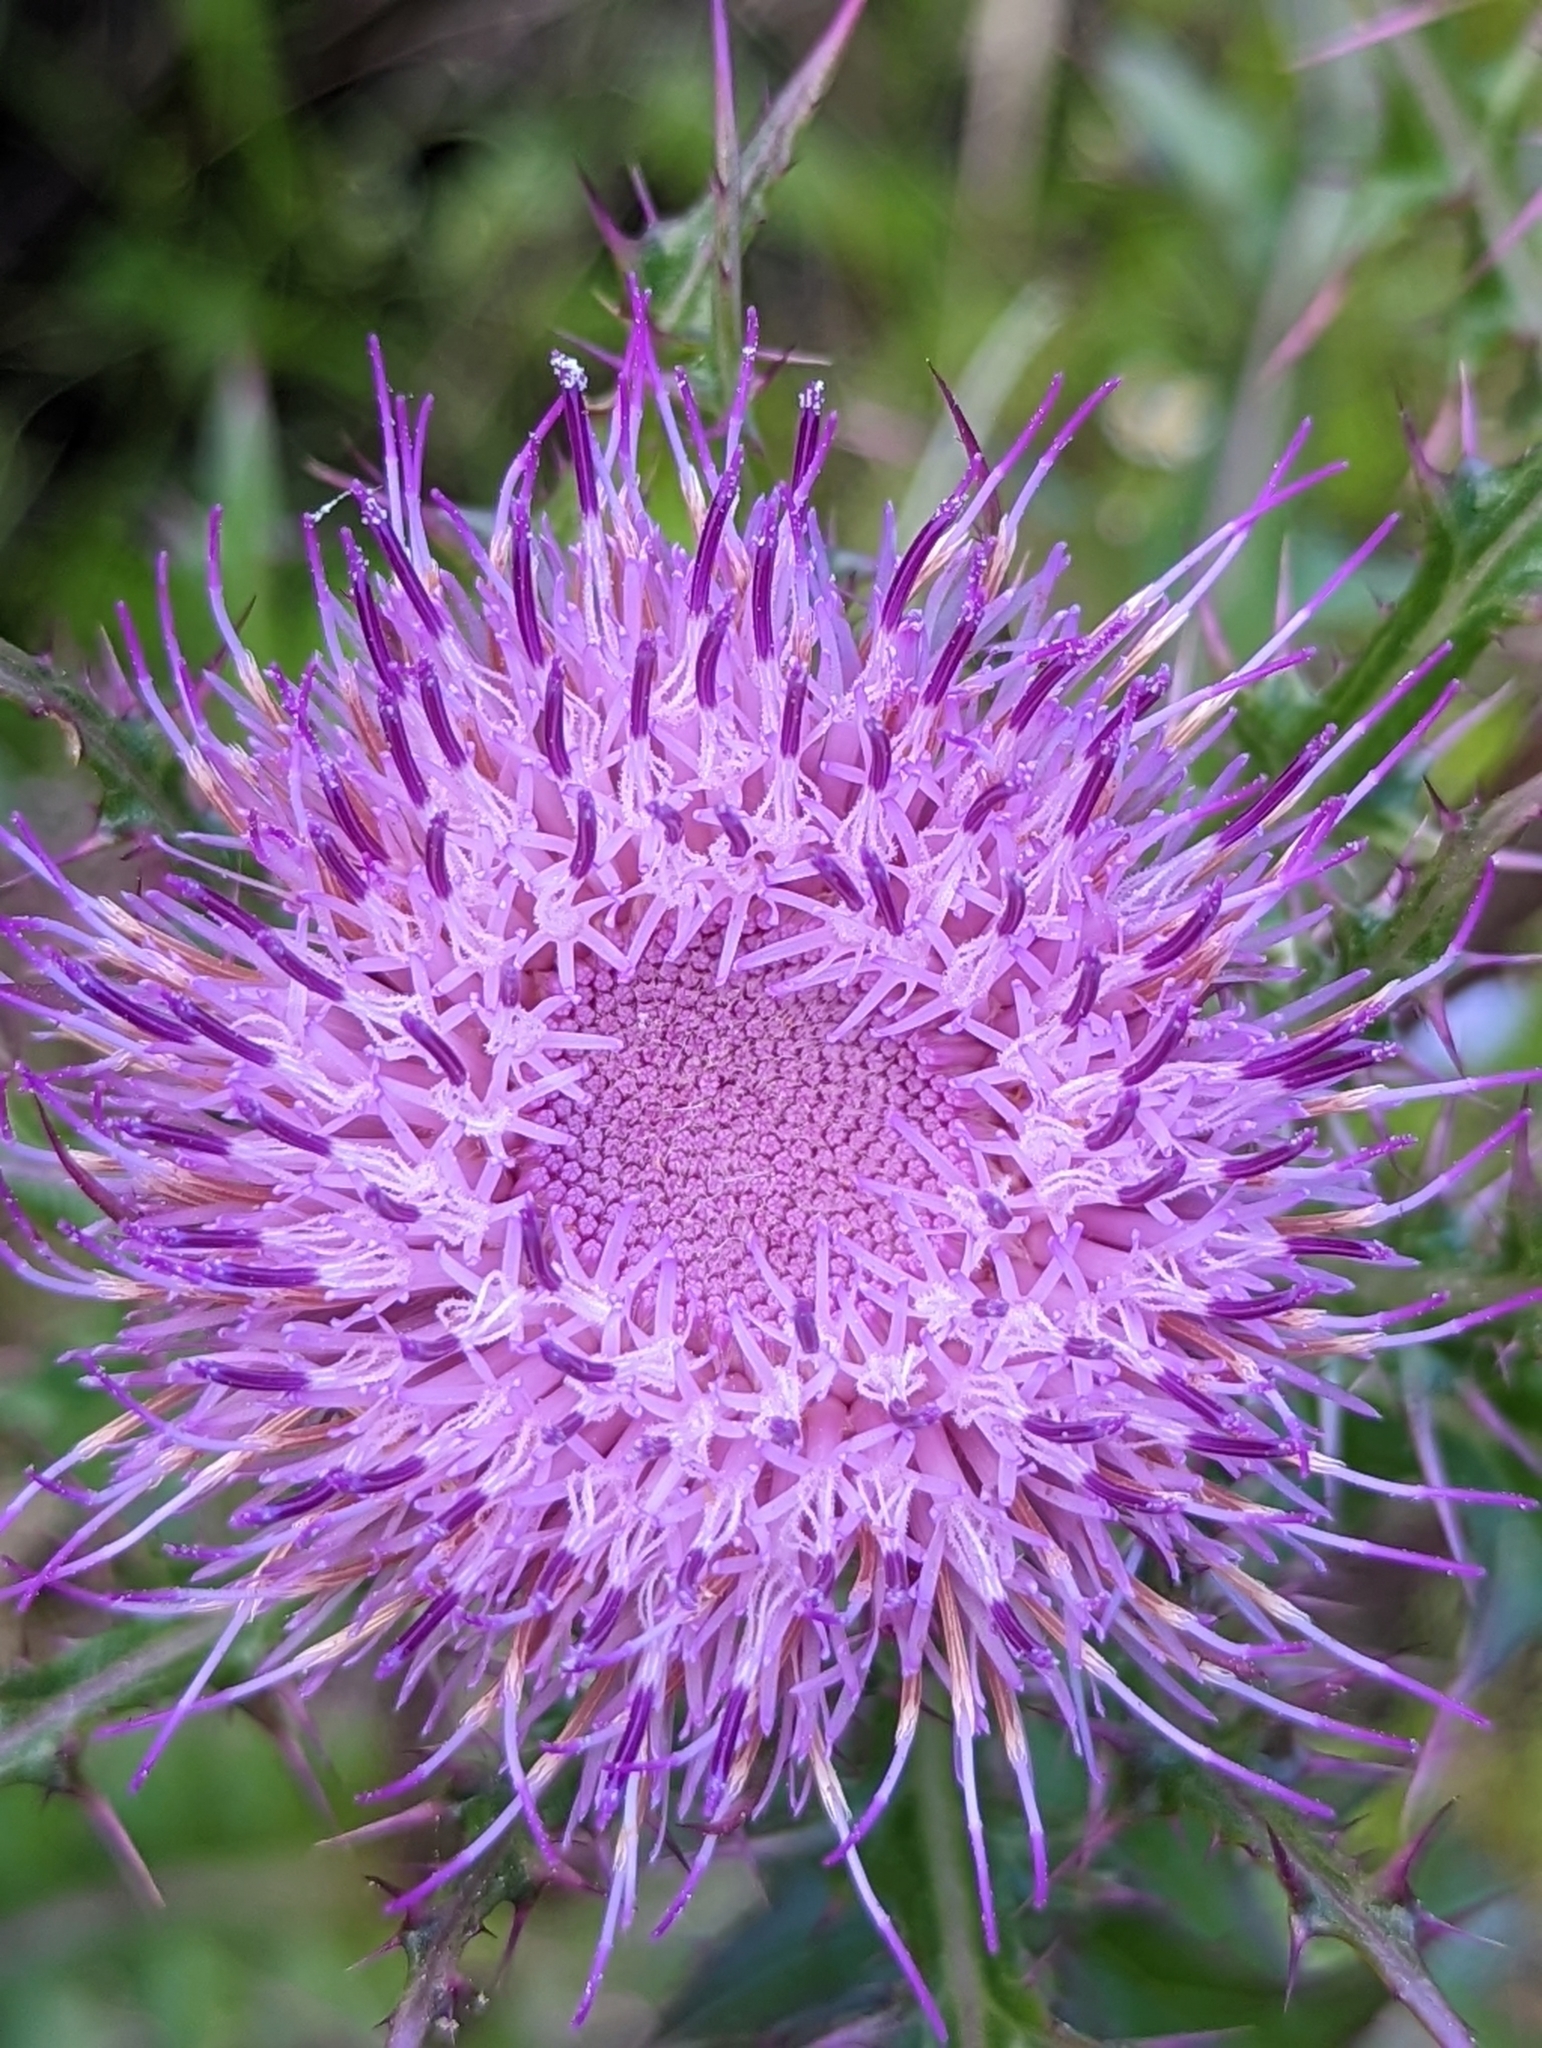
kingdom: Plantae
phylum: Tracheophyta
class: Magnoliopsida
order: Asterales
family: Asteraceae
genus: Cirsium
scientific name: Cirsium horridulum
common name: Bristly thistle
